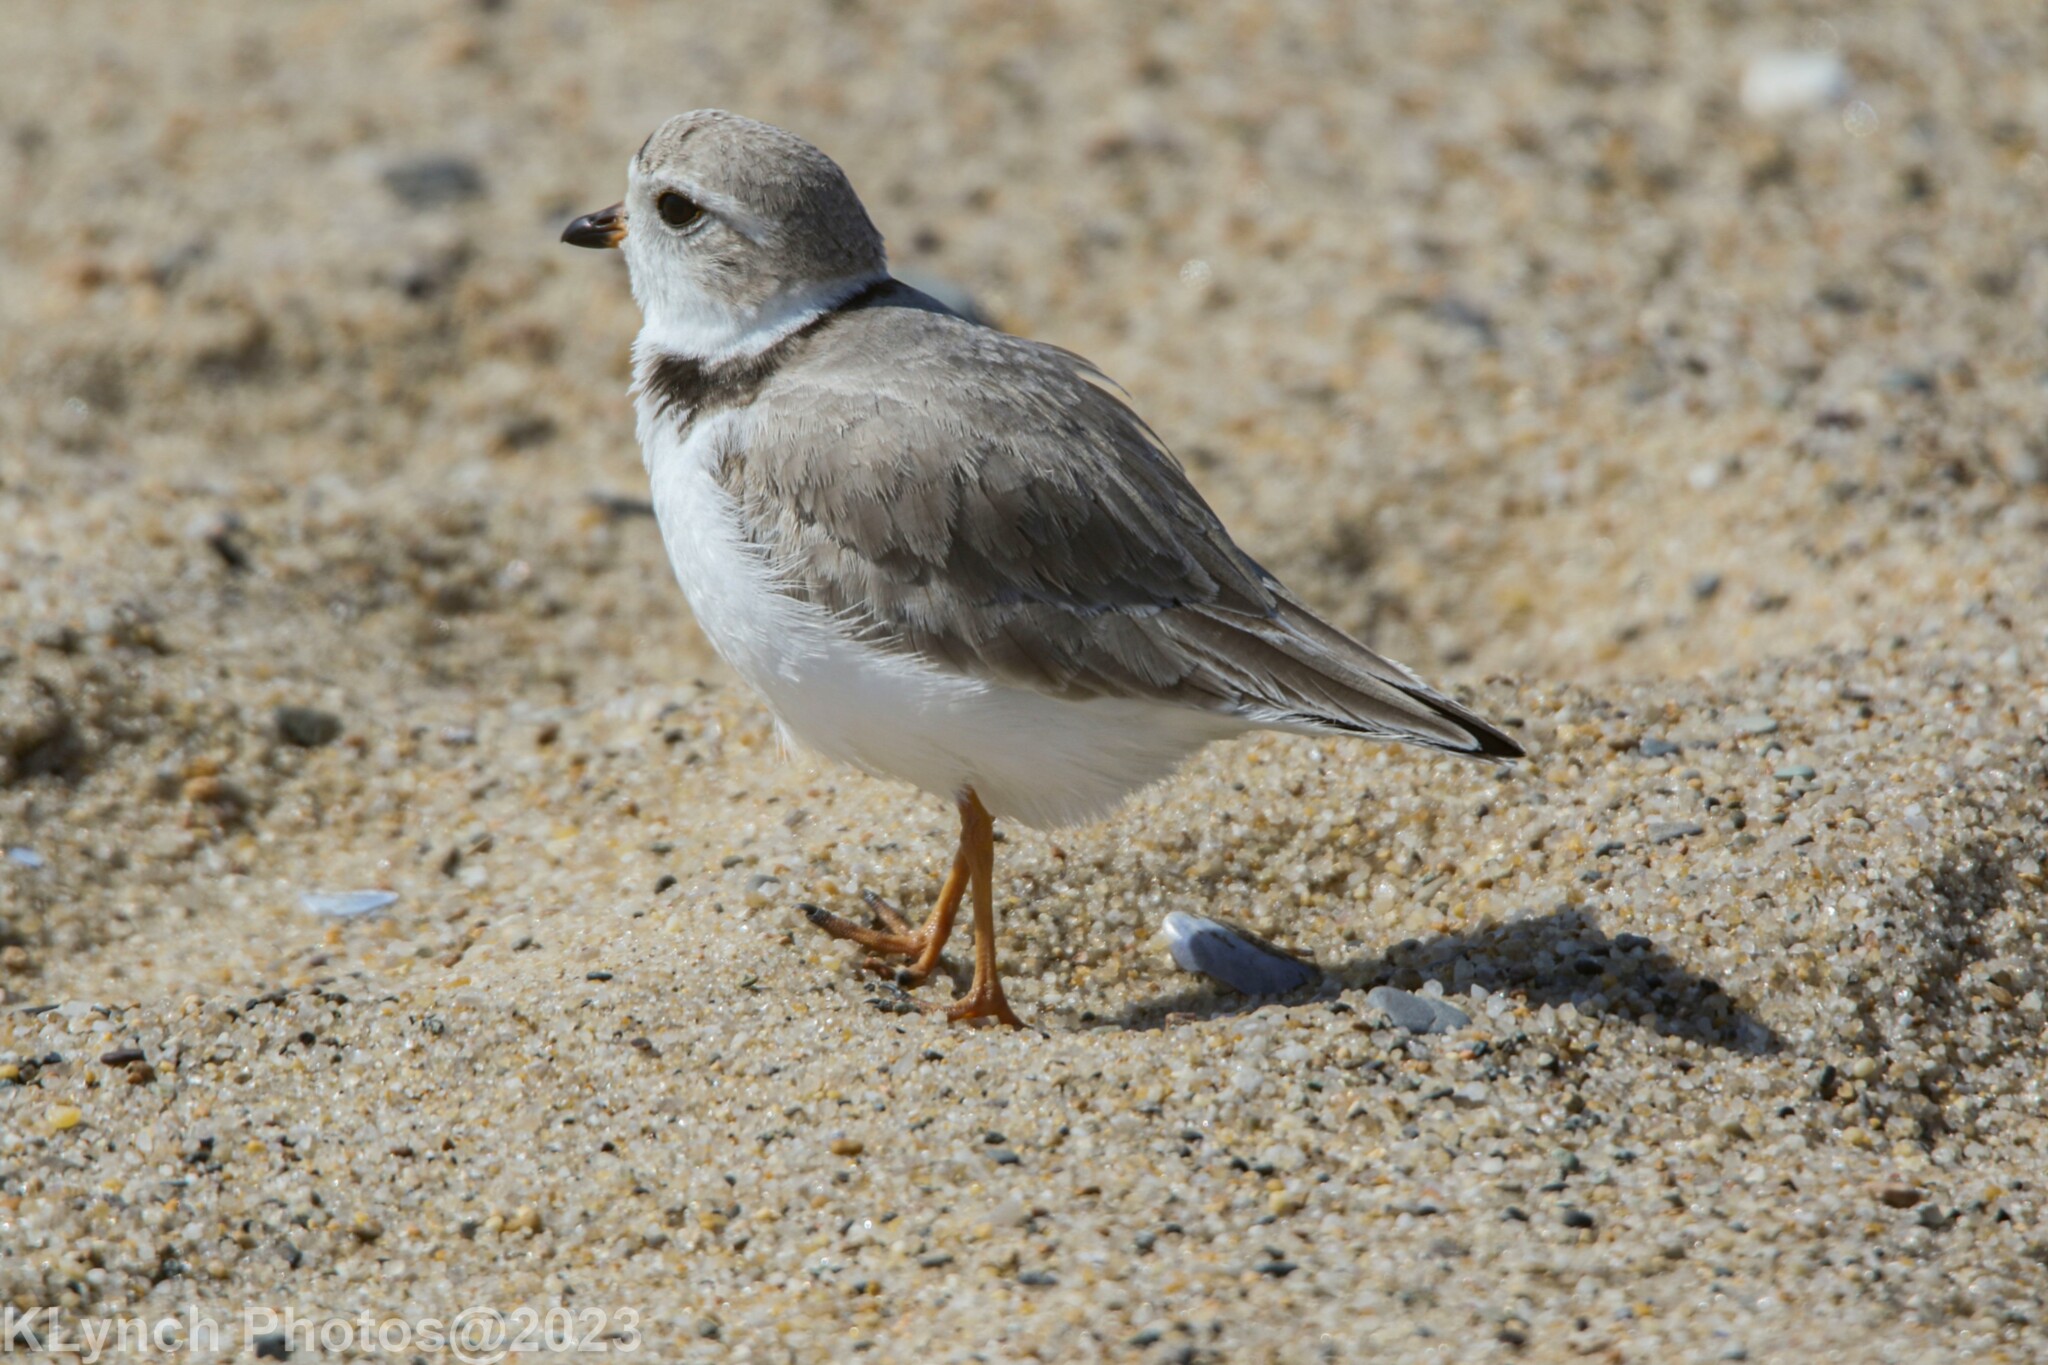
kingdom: Animalia
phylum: Chordata
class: Aves
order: Charadriiformes
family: Charadriidae
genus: Charadrius
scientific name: Charadrius melodus
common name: Piping plover
